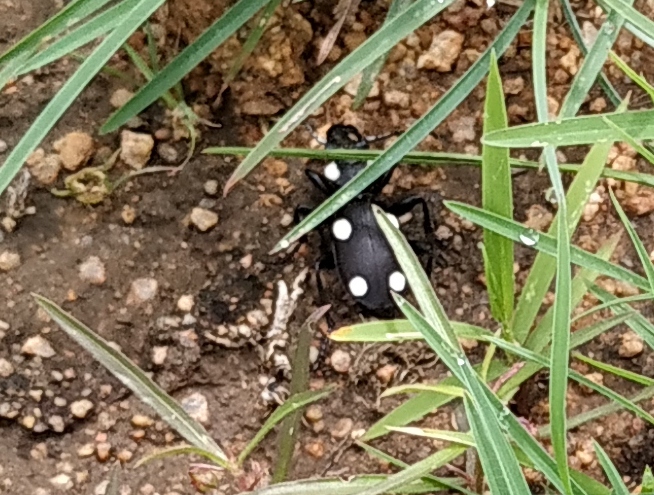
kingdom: Animalia
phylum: Arthropoda
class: Insecta
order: Coleoptera
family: Carabidae
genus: Anthia
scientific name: Anthia sexguttata
